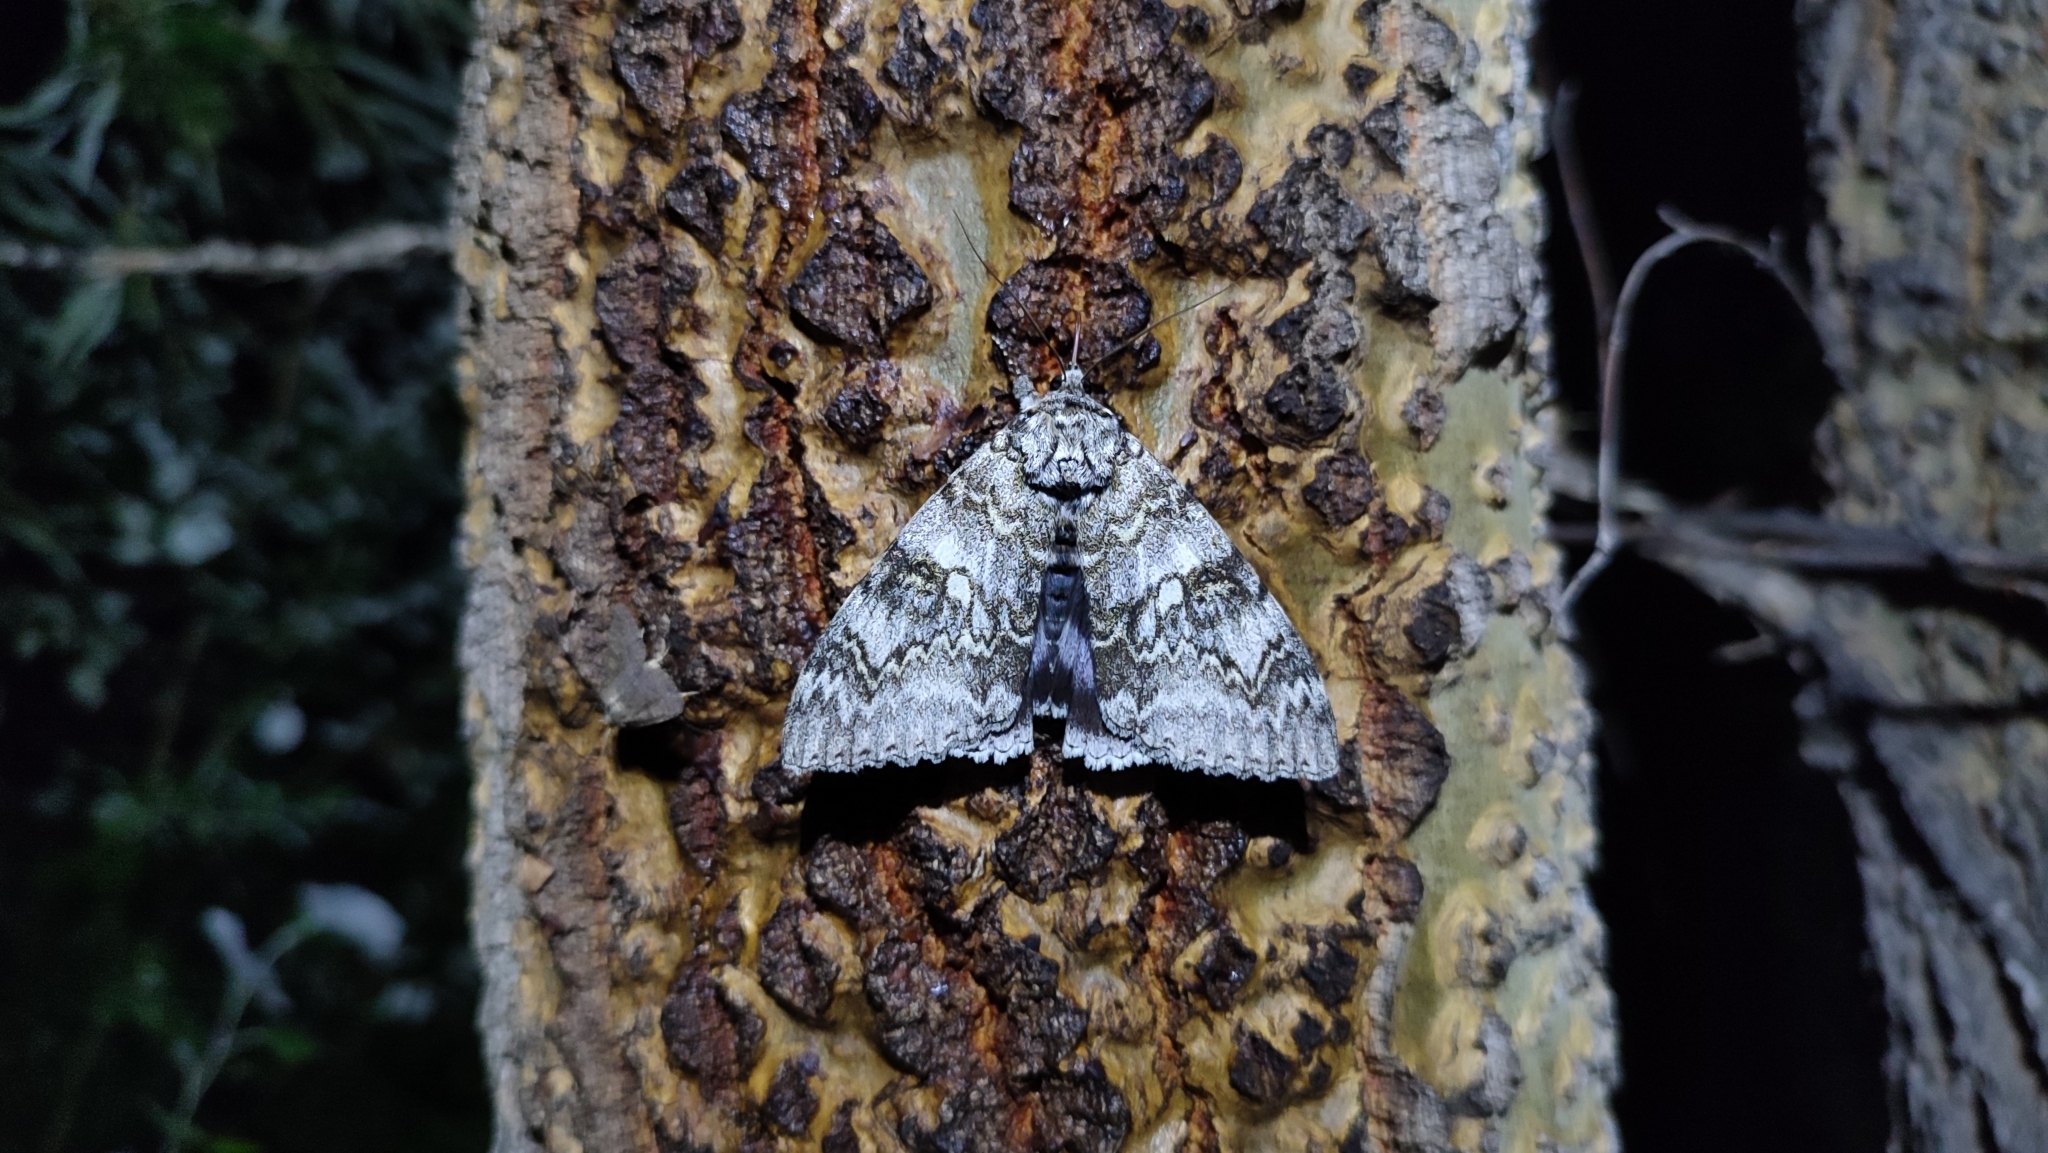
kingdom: Animalia
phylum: Arthropoda
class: Insecta
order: Lepidoptera
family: Erebidae
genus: Catocala
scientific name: Catocala fraxini
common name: Clifden nonpareil
